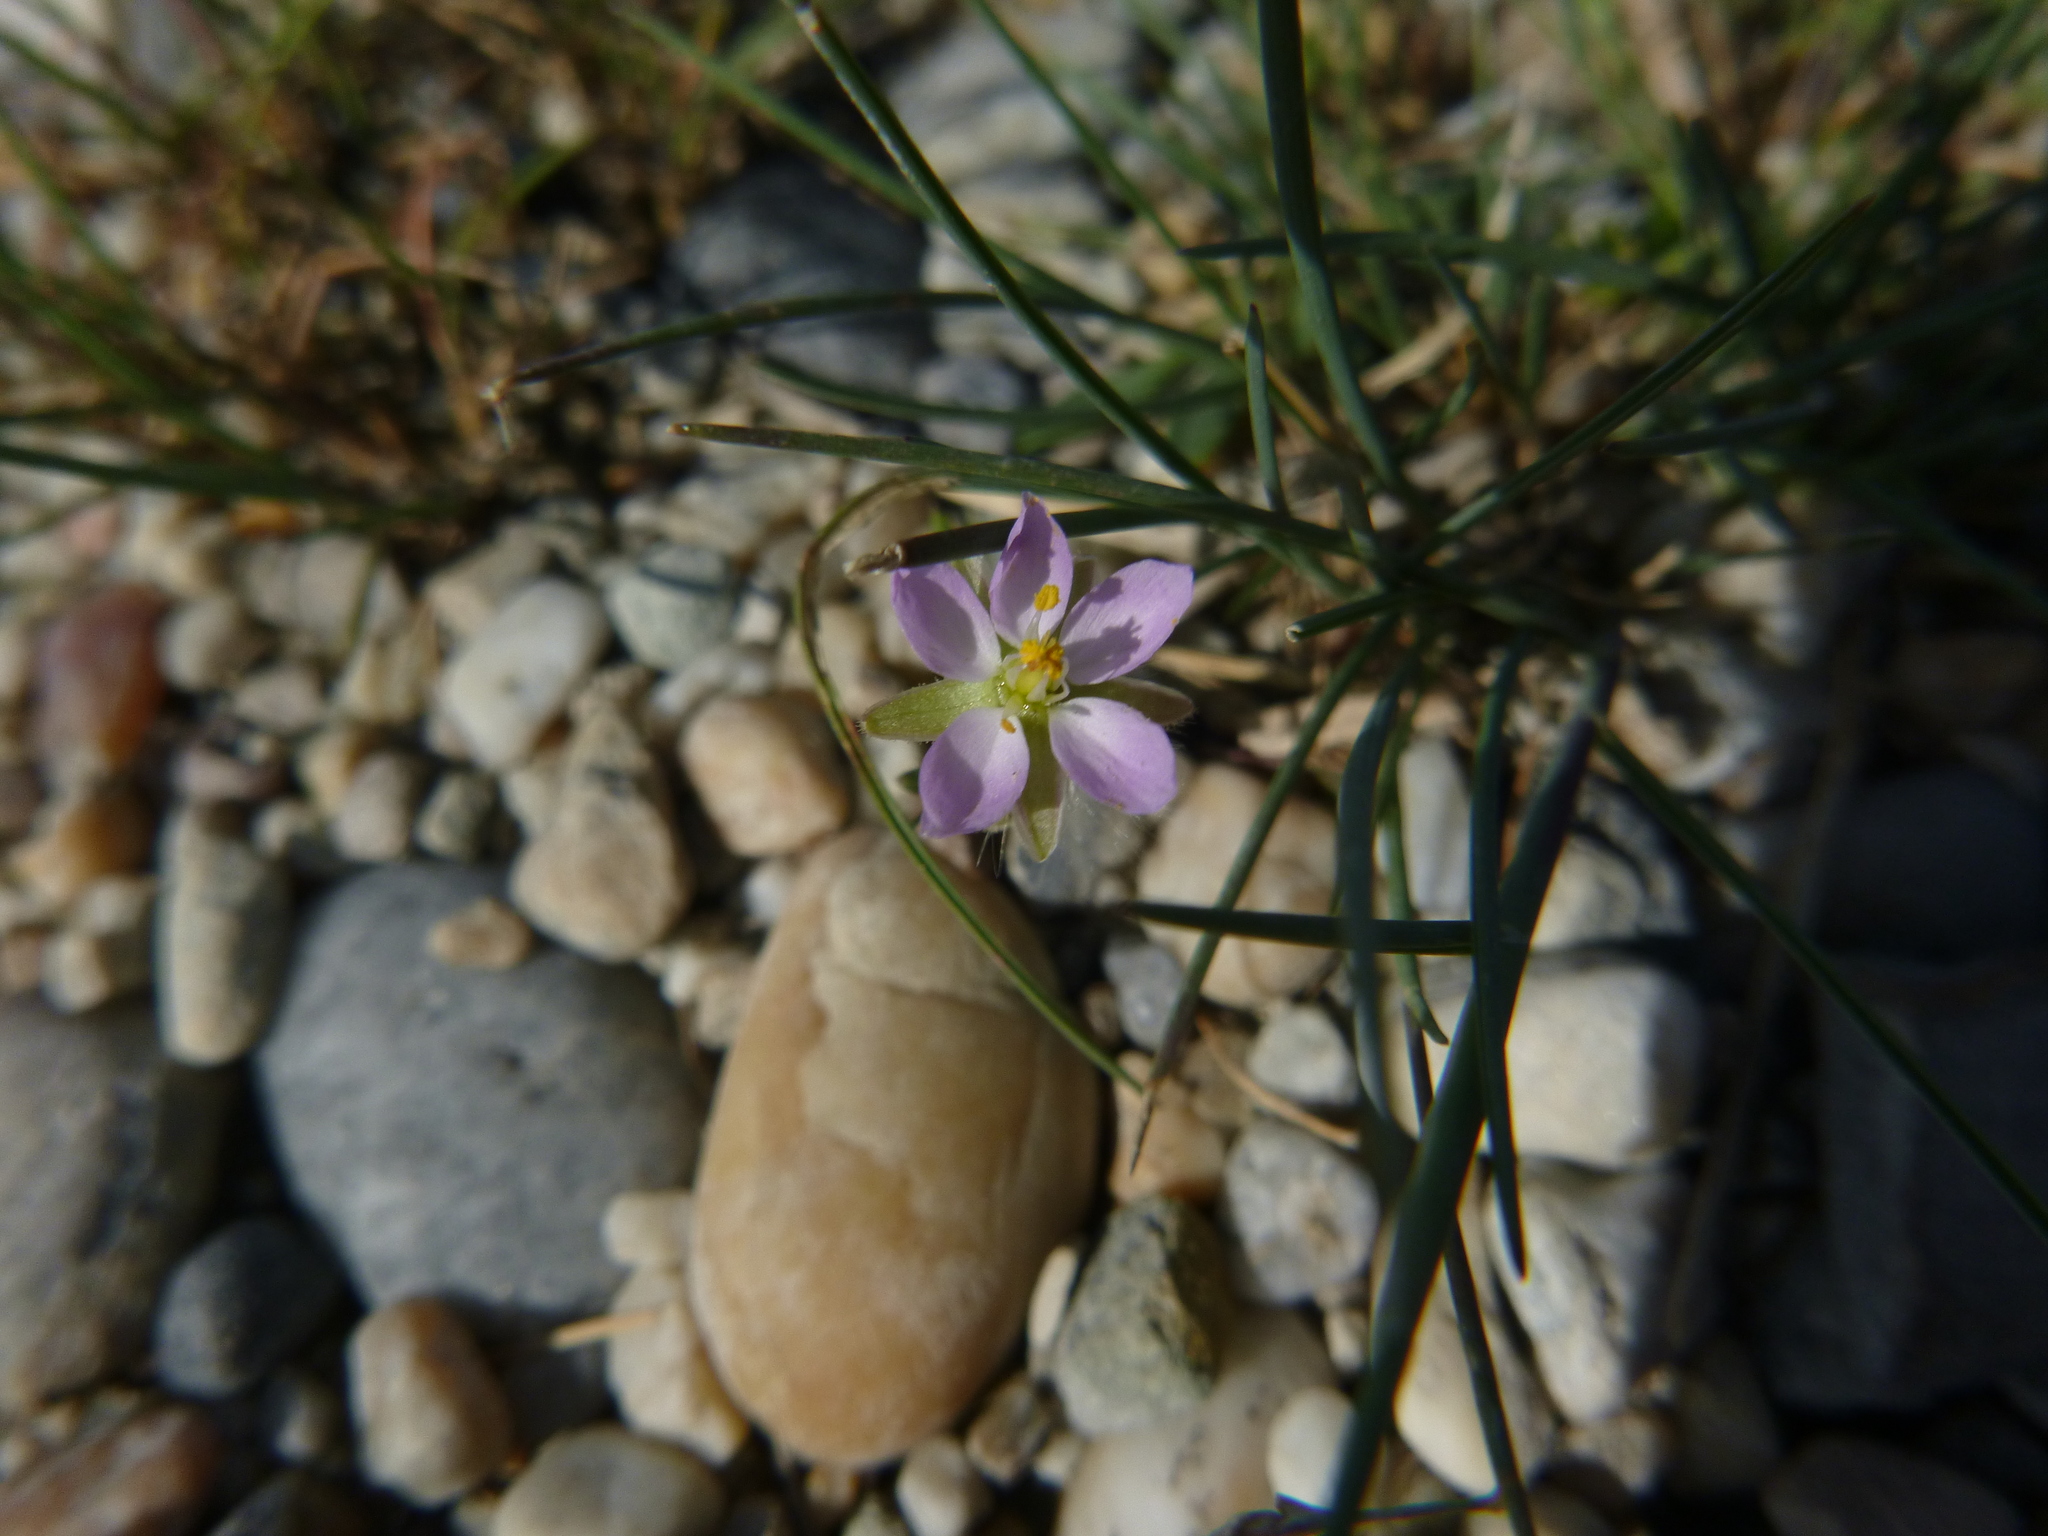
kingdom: Plantae
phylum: Tracheophyta
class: Magnoliopsida
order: Caryophyllales
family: Caryophyllaceae
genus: Spergularia
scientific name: Spergularia media
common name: Greater sea-spurrey
